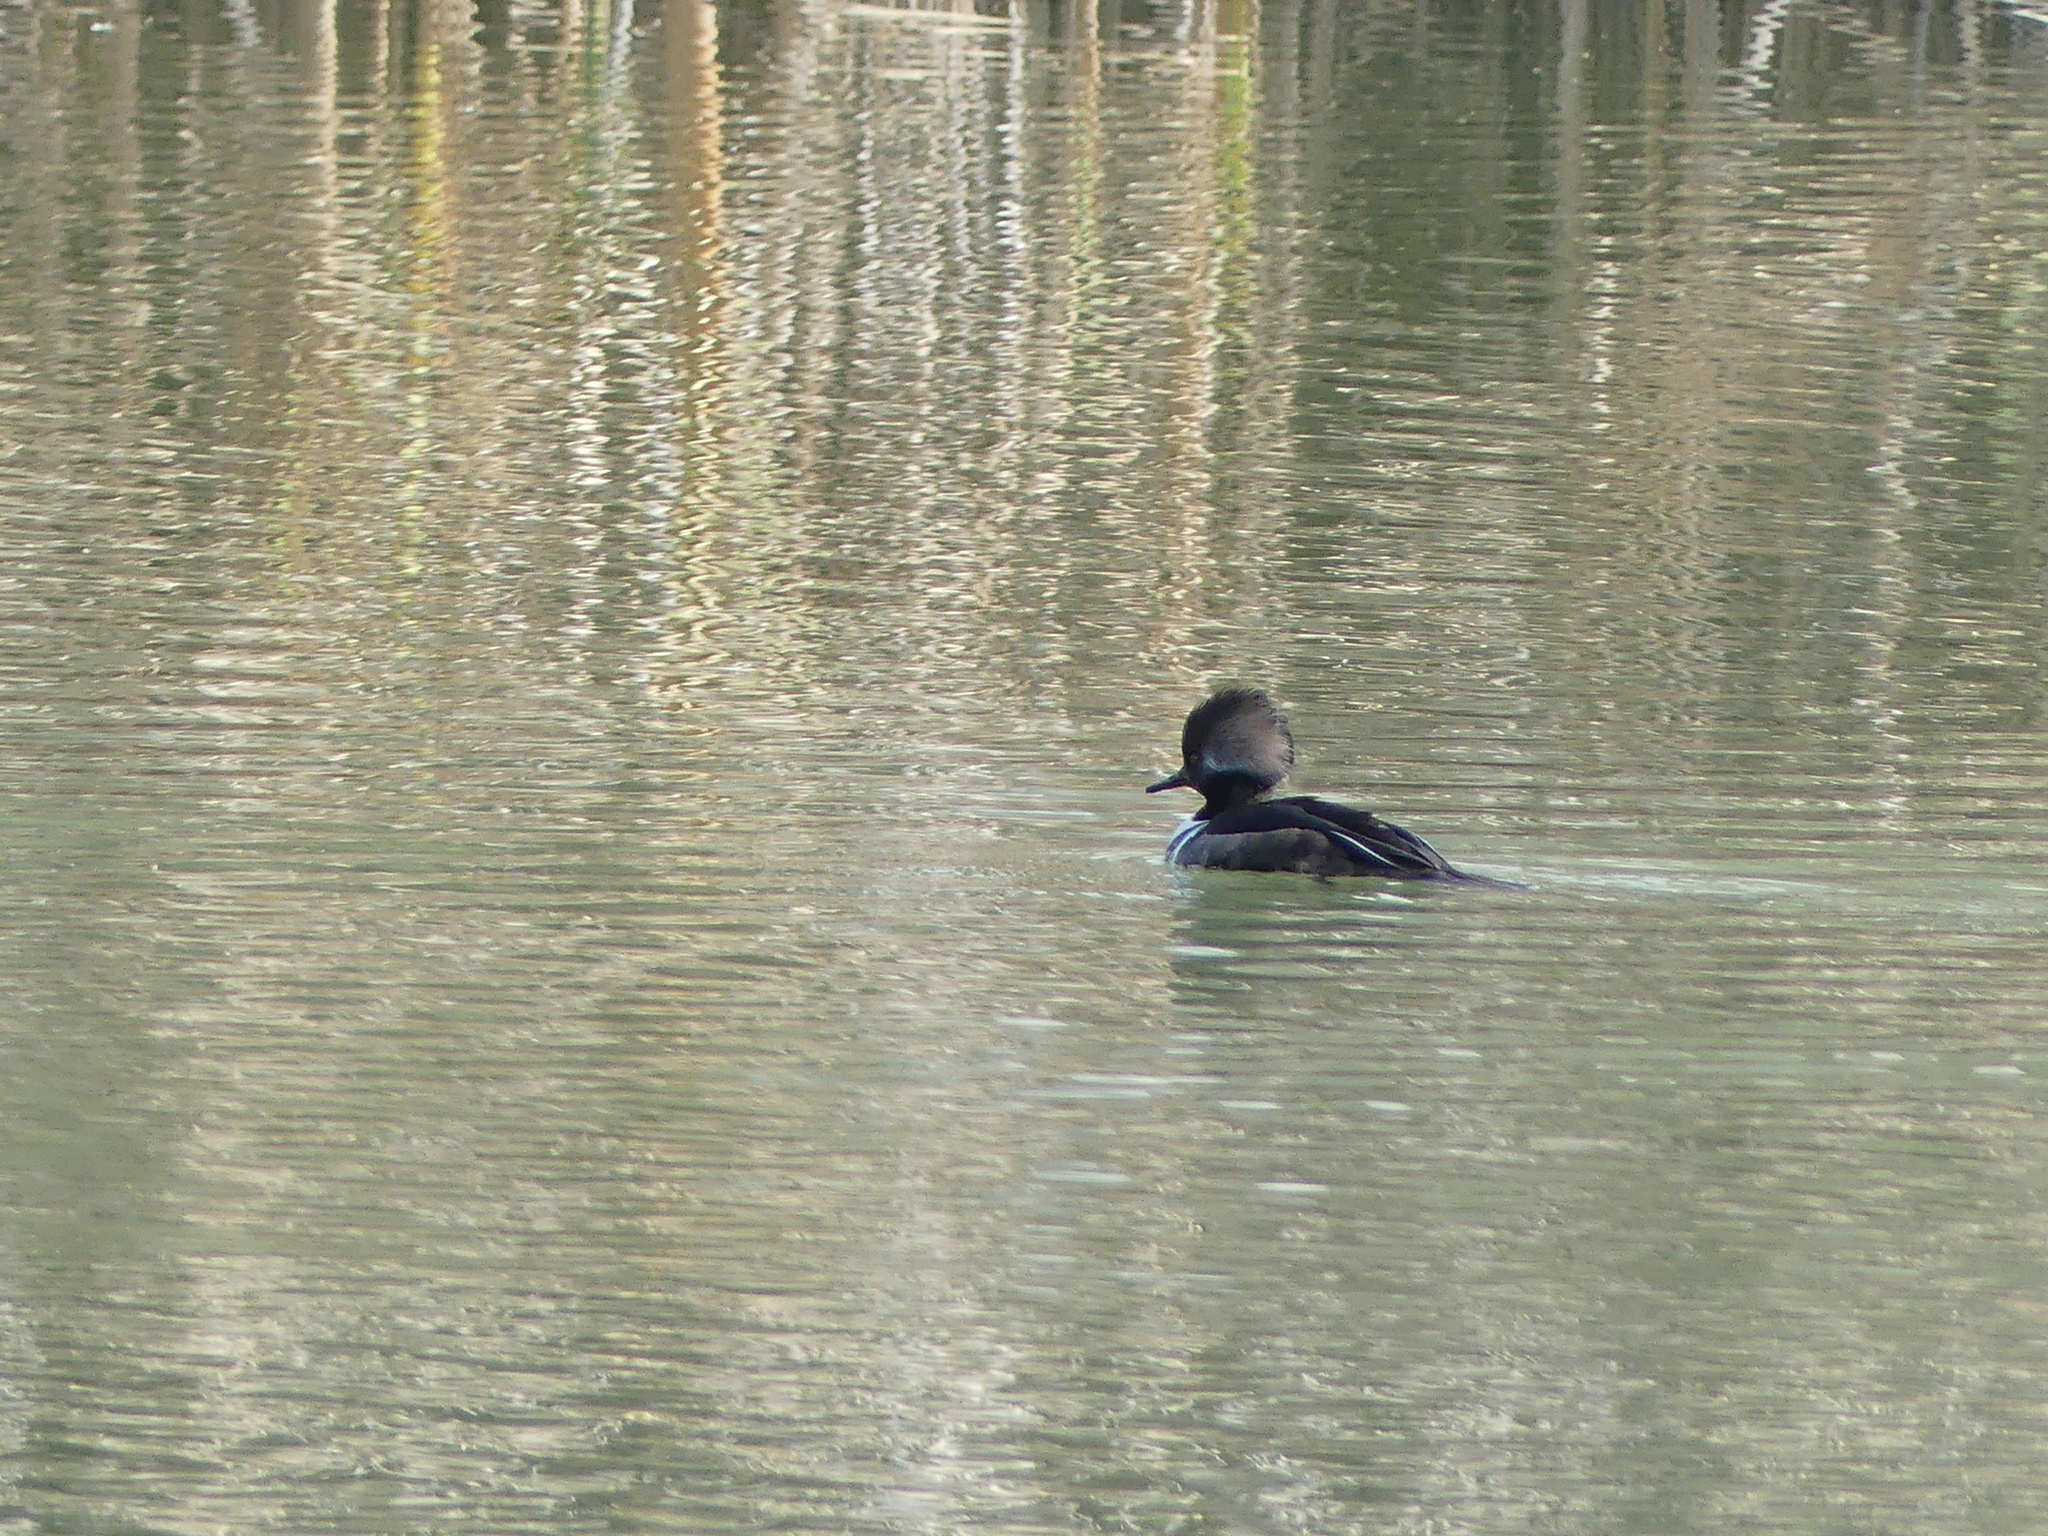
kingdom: Animalia
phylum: Chordata
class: Aves
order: Anseriformes
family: Anatidae
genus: Lophodytes
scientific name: Lophodytes cucullatus
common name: Hooded merganser
